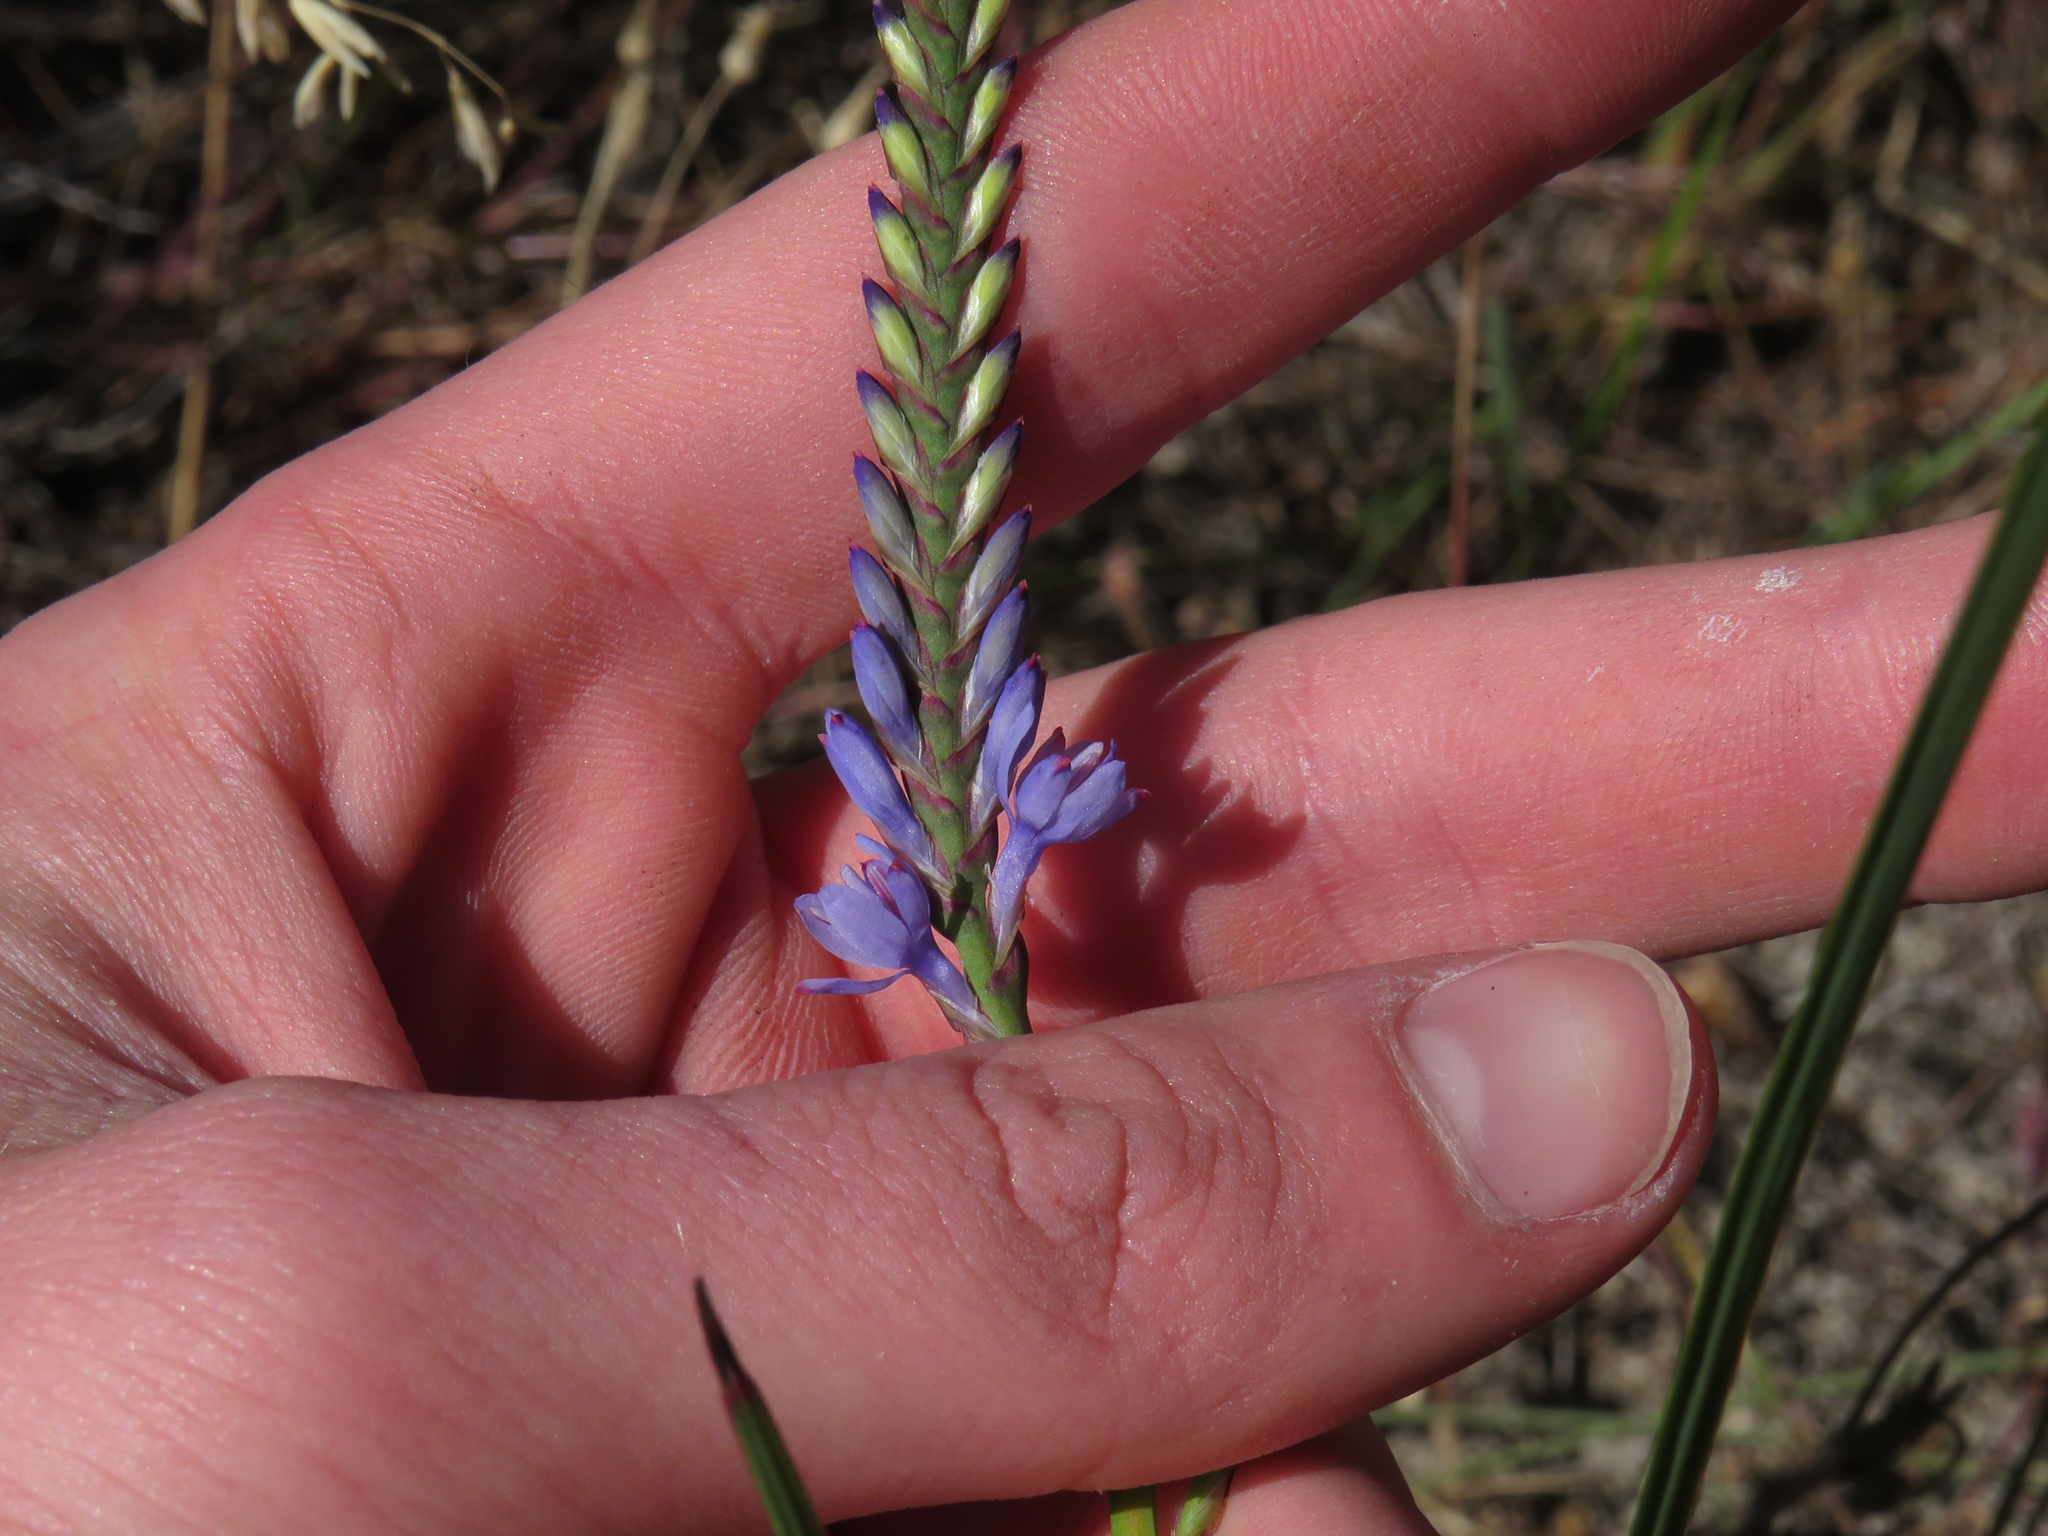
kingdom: Plantae
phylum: Tracheophyta
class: Liliopsida
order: Asparagales
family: Iridaceae
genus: Micranthus
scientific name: Micranthus alopecuroides
